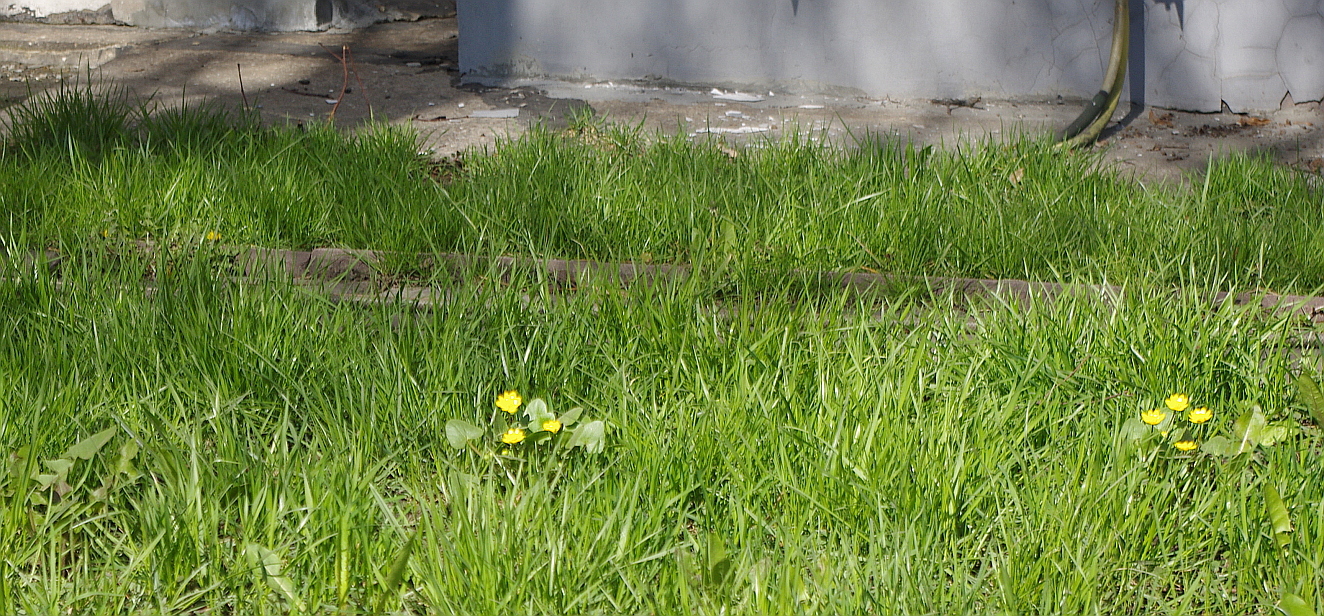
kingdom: Plantae
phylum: Tracheophyta
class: Magnoliopsida
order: Ranunculales
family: Ranunculaceae
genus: Ficaria
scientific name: Ficaria verna
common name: Lesser celandine
